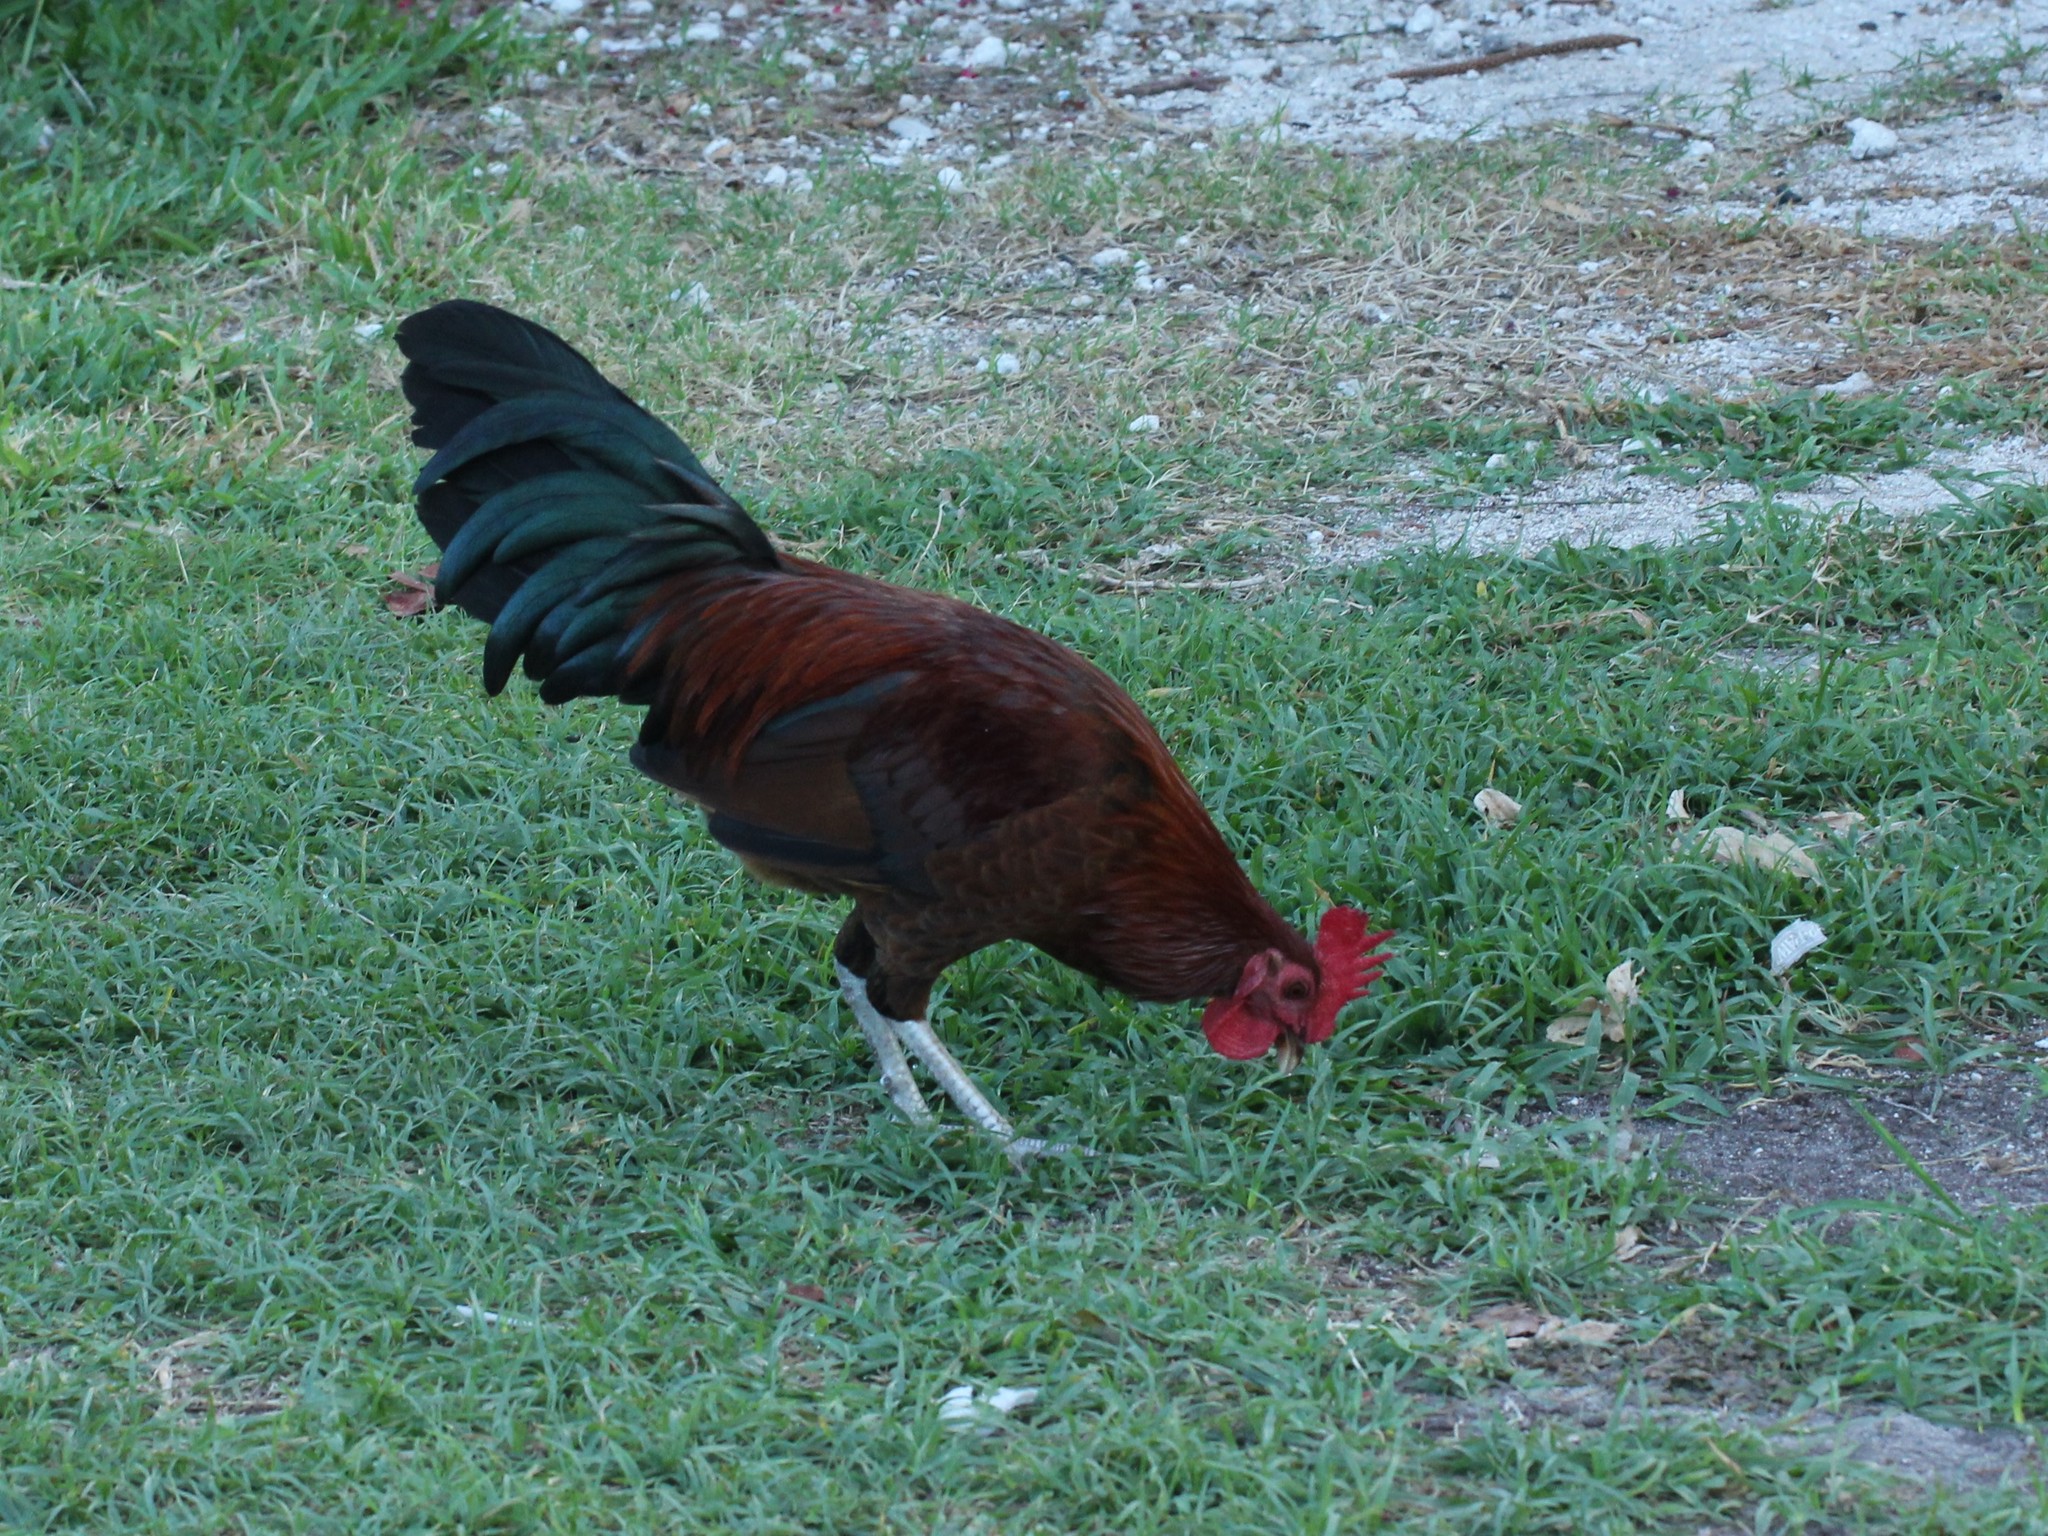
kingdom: Animalia
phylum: Chordata
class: Aves
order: Galliformes
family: Phasianidae
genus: Gallus
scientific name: Gallus gallus
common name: Red junglefowl
